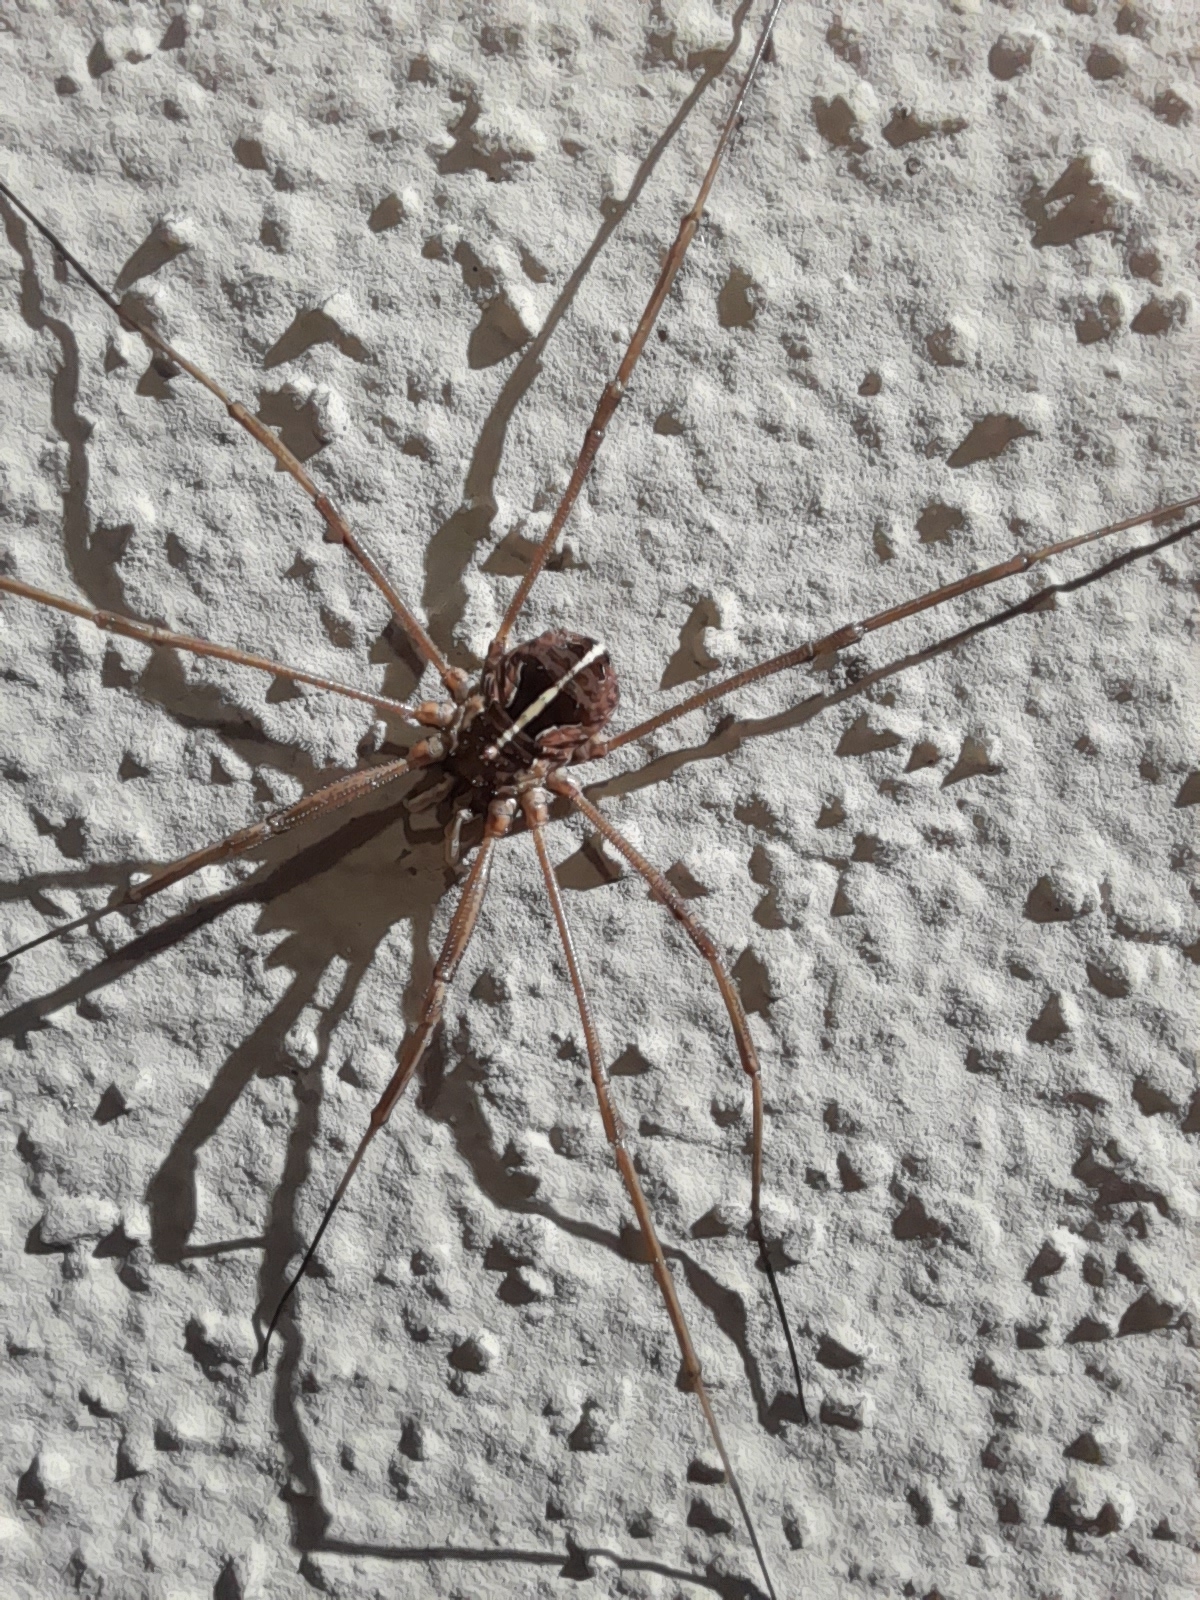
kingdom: Animalia
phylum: Arthropoda
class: Arachnida
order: Opiliones
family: Phalangiidae
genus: Metaphalangium
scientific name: Metaphalangium cirtanum
